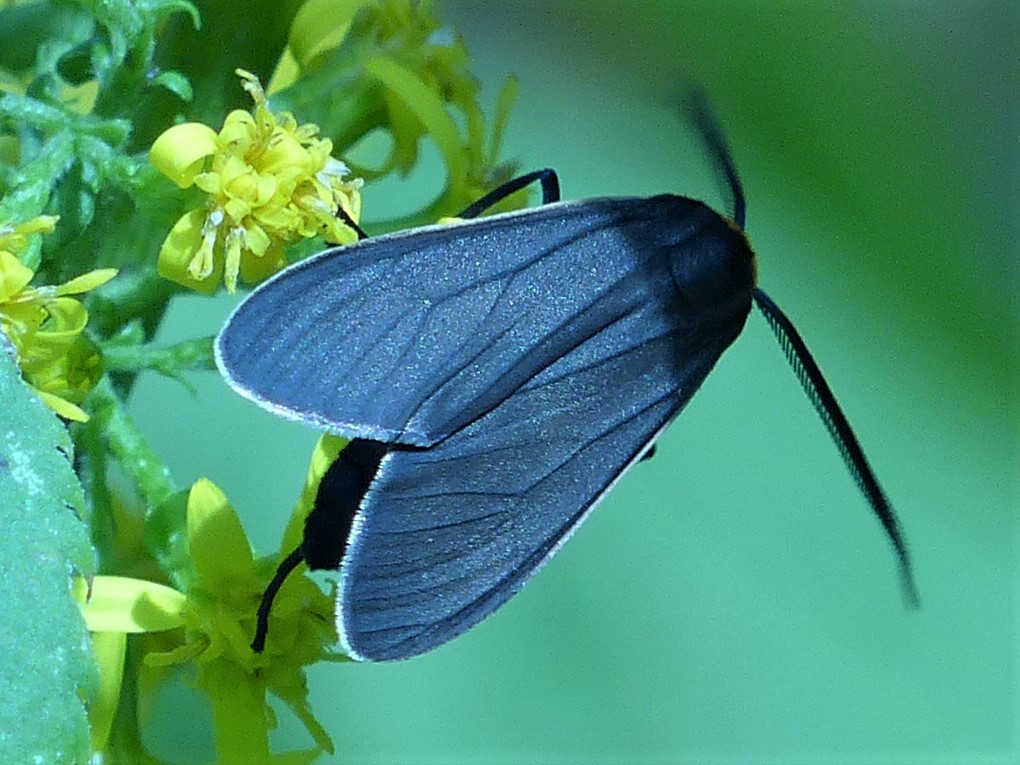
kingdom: Animalia
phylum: Arthropoda
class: Insecta
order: Lepidoptera
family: Erebidae
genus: Cisseps
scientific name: Cisseps fulvicollis
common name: Yellow-collared scape moth
